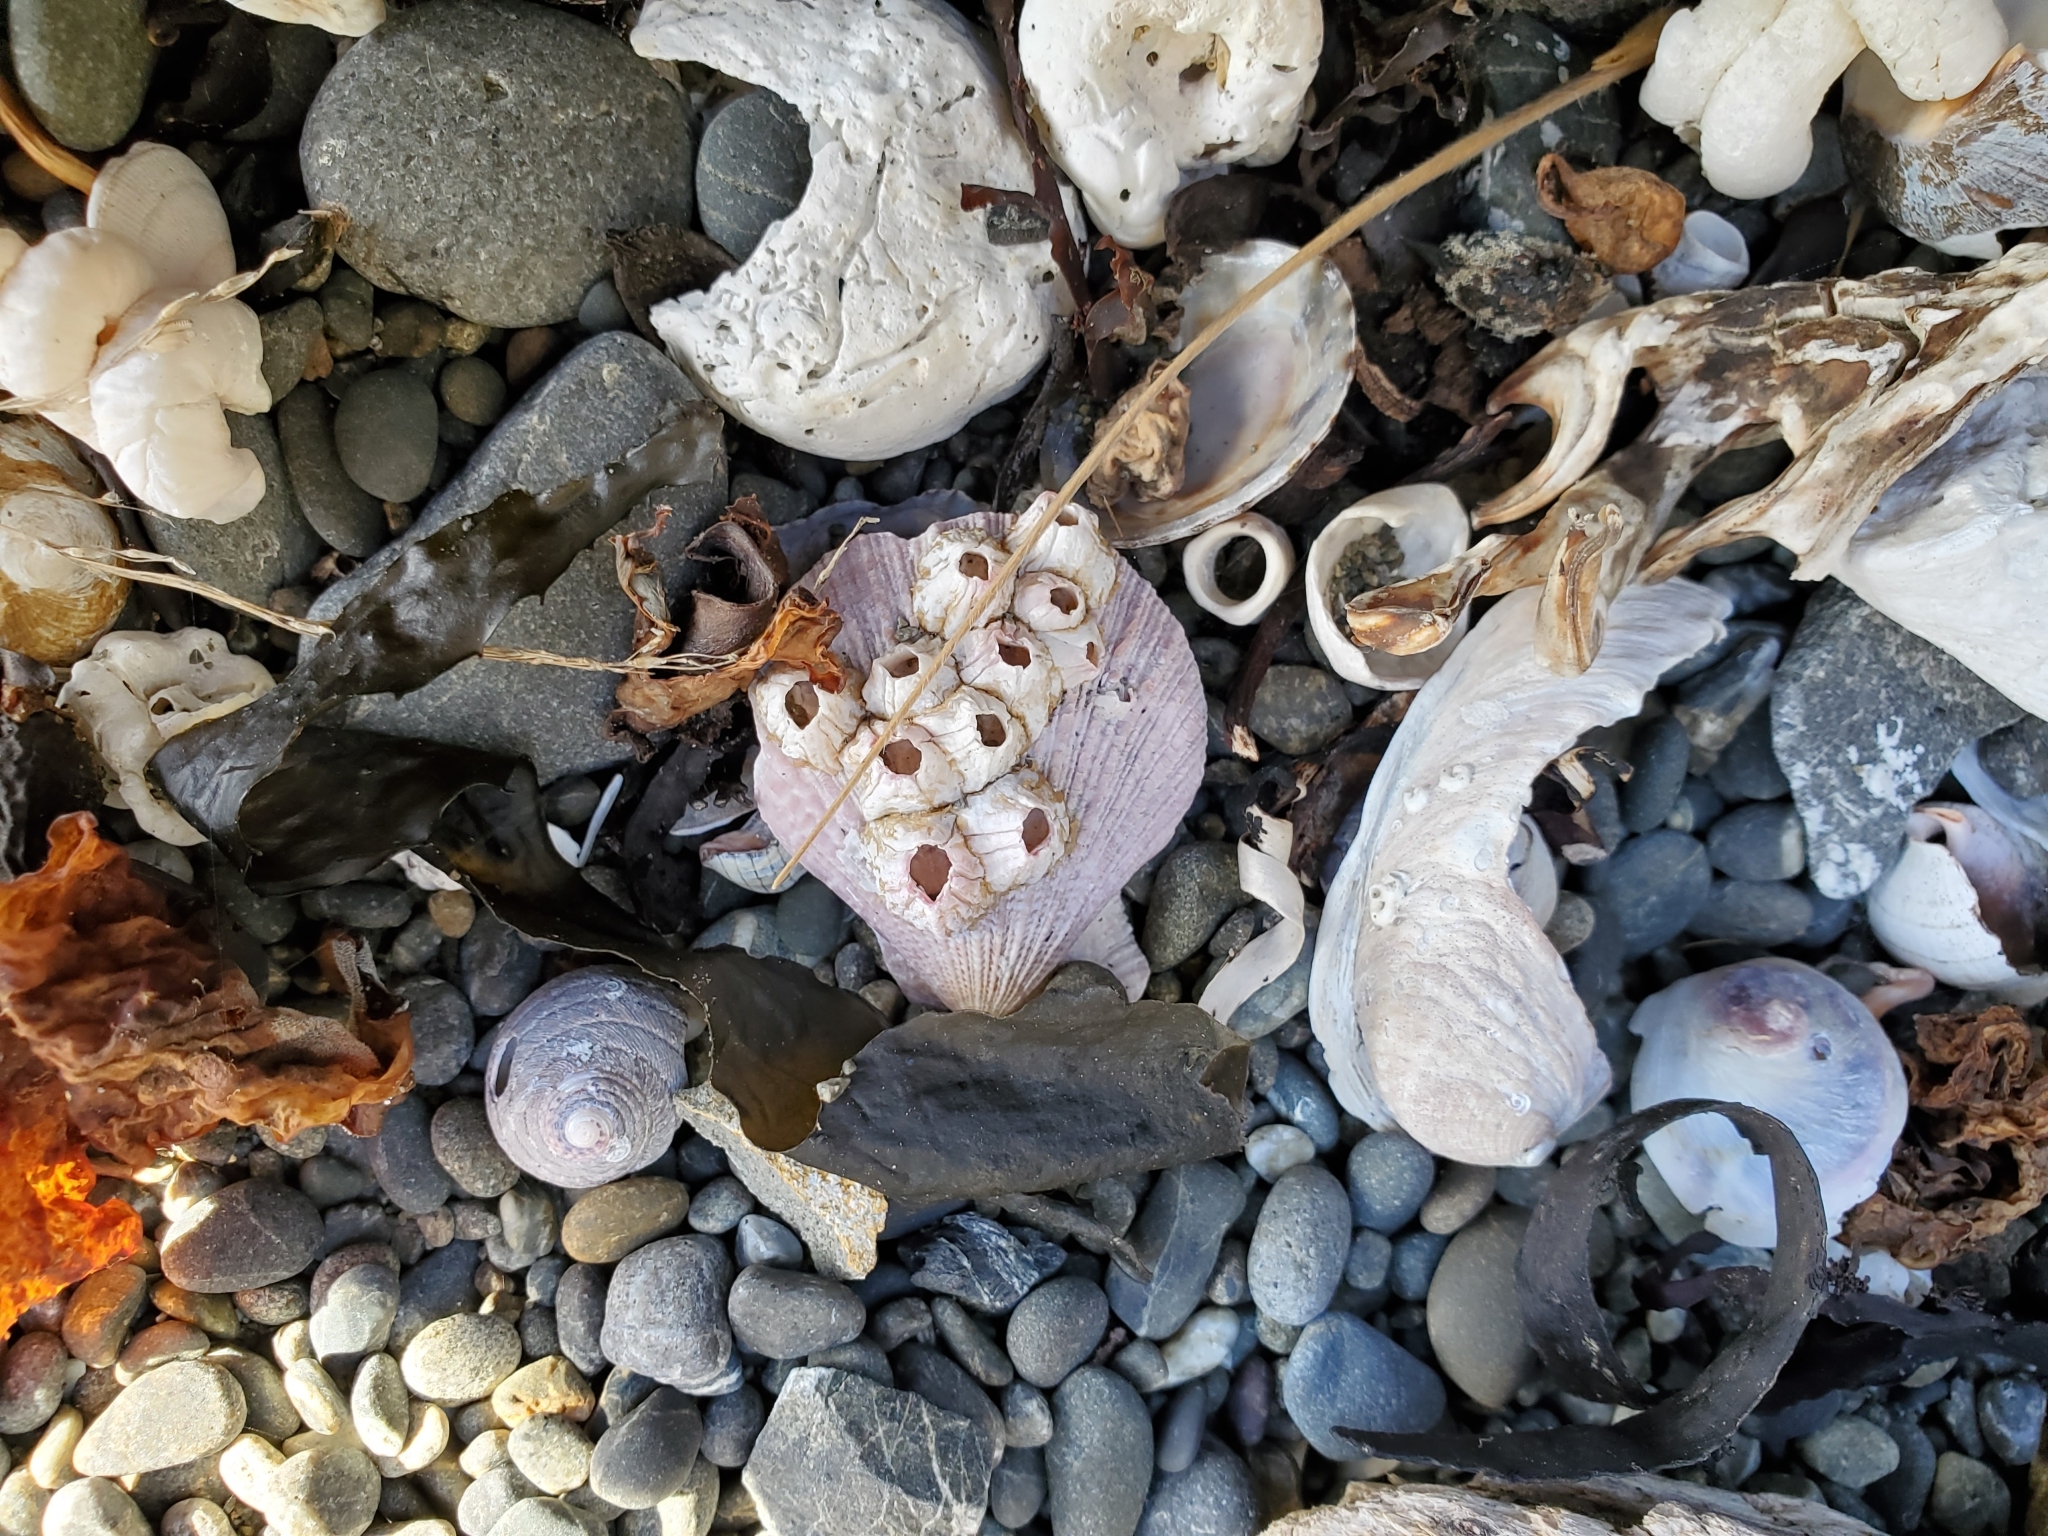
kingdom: Animalia
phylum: Mollusca
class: Bivalvia
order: Pectinida
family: Pectinidae
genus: Talochlamys
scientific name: Talochlamys zelandiae
